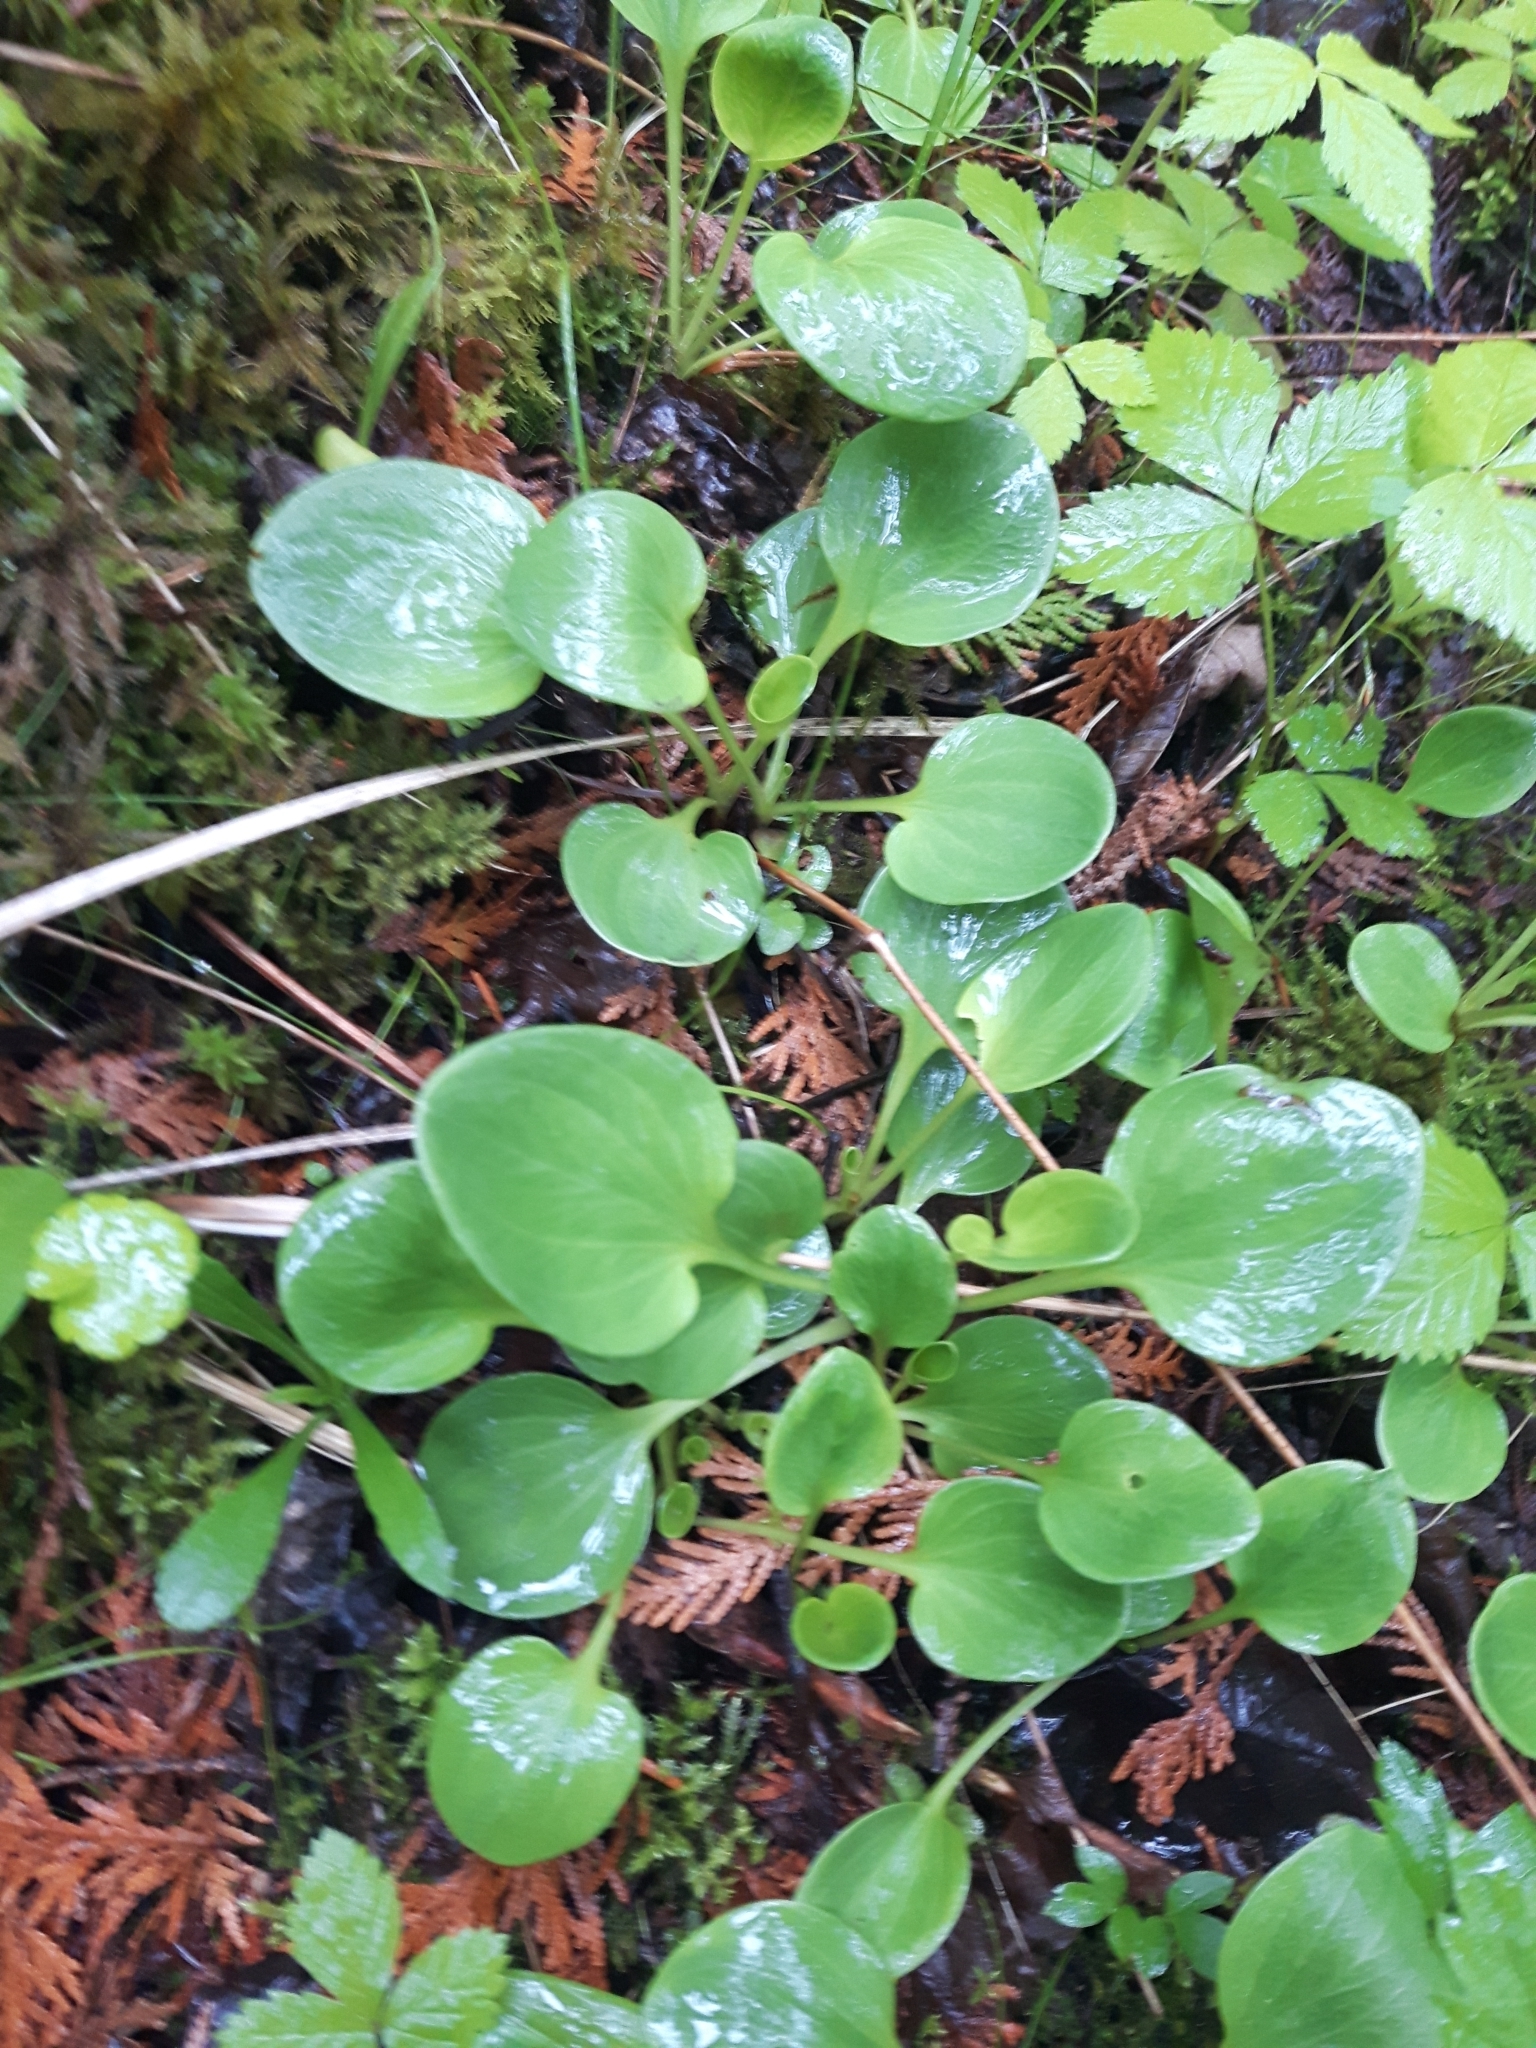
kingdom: Plantae
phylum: Tracheophyta
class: Magnoliopsida
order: Celastrales
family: Parnassiaceae
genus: Parnassia
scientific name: Parnassia glauca
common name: American grass-of-parnassus
